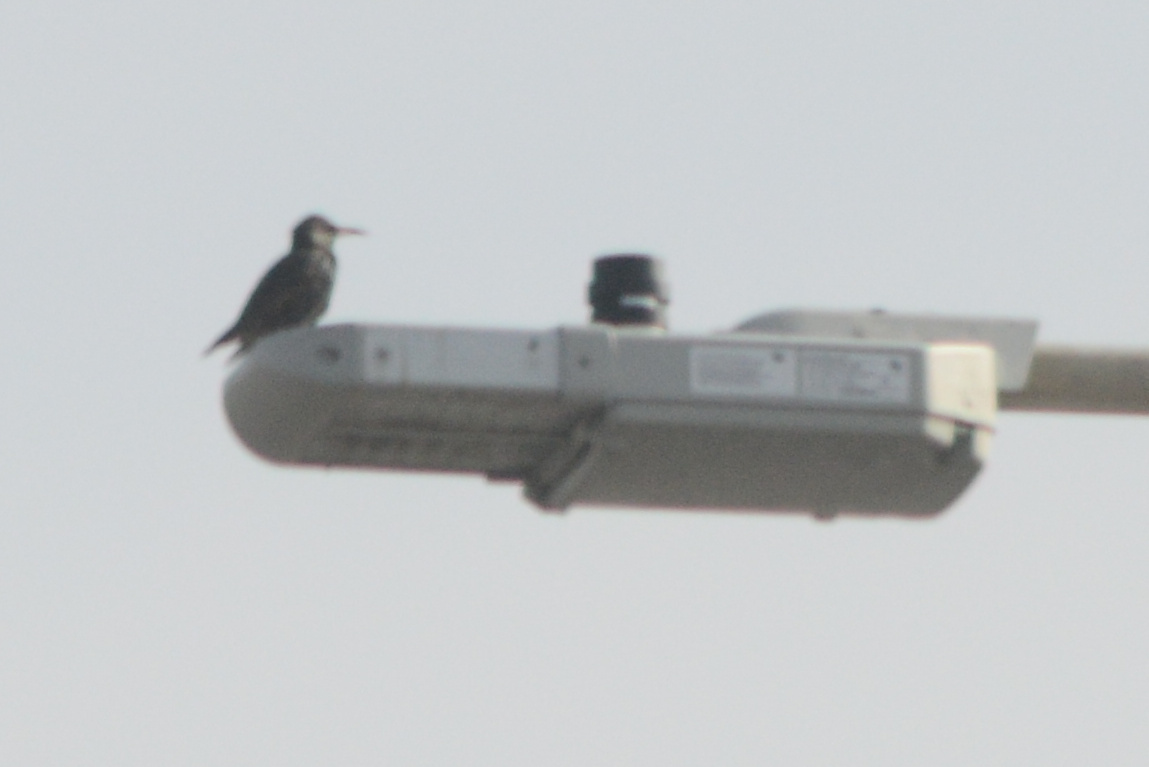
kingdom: Animalia
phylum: Chordata
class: Aves
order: Passeriformes
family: Sturnidae
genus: Sturnus
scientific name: Sturnus vulgaris
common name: Common starling
